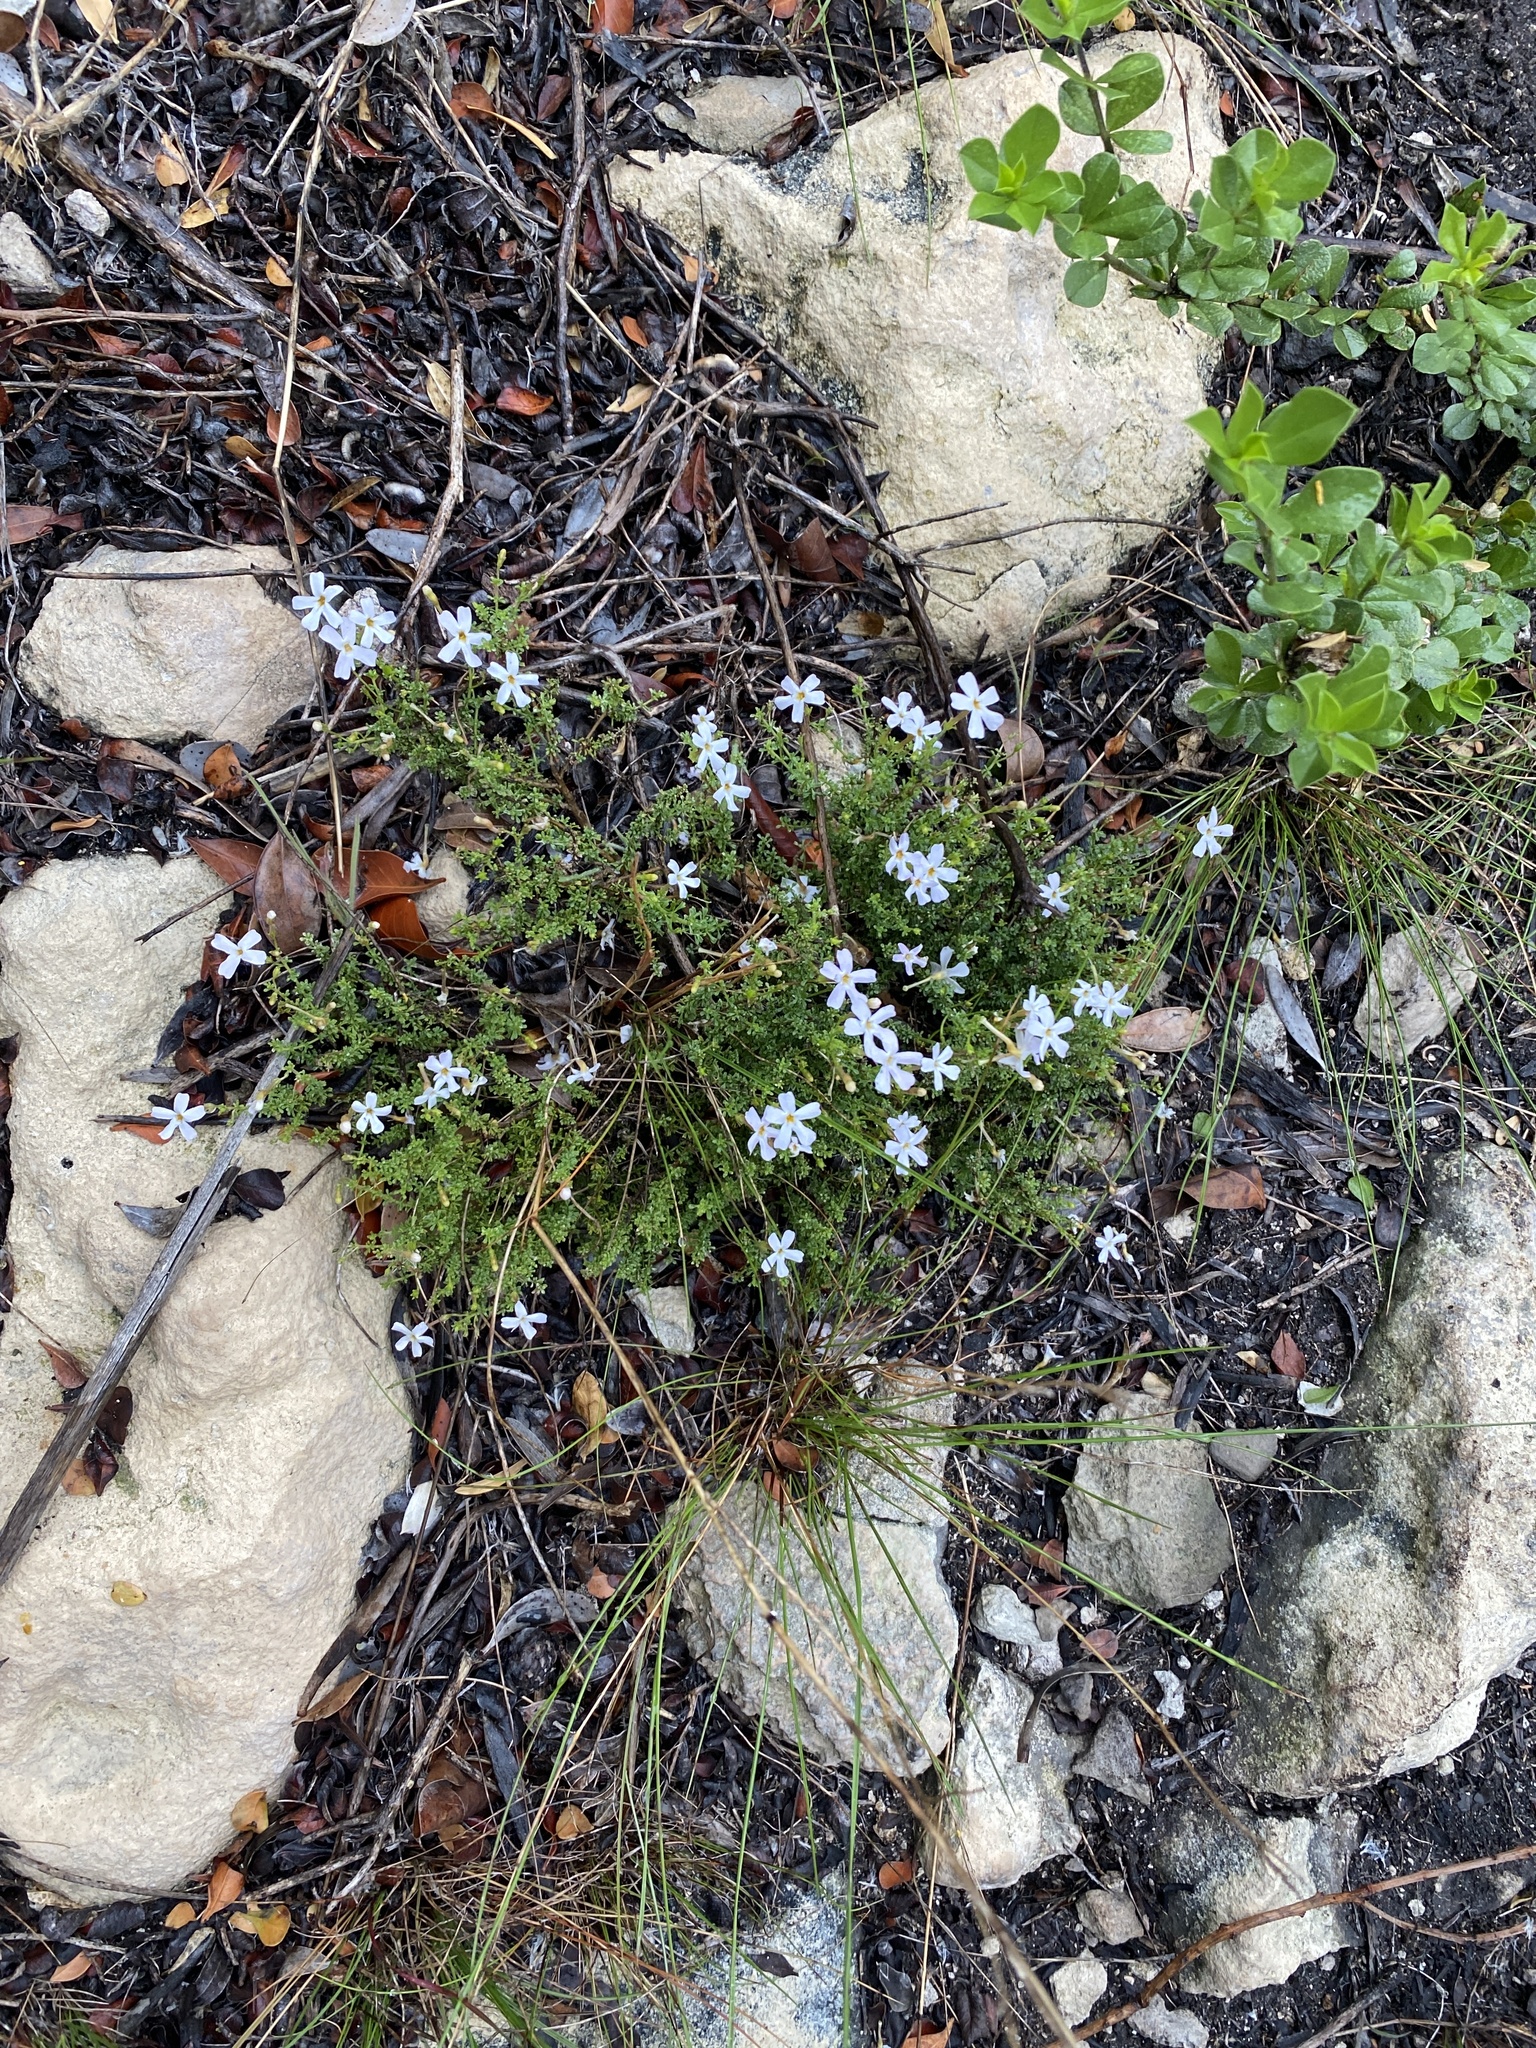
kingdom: Plantae
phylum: Tracheophyta
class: Magnoliopsida
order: Lamiales
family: Scrophulariaceae
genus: Jamesbrittenia
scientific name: Jamesbrittenia calciphila
